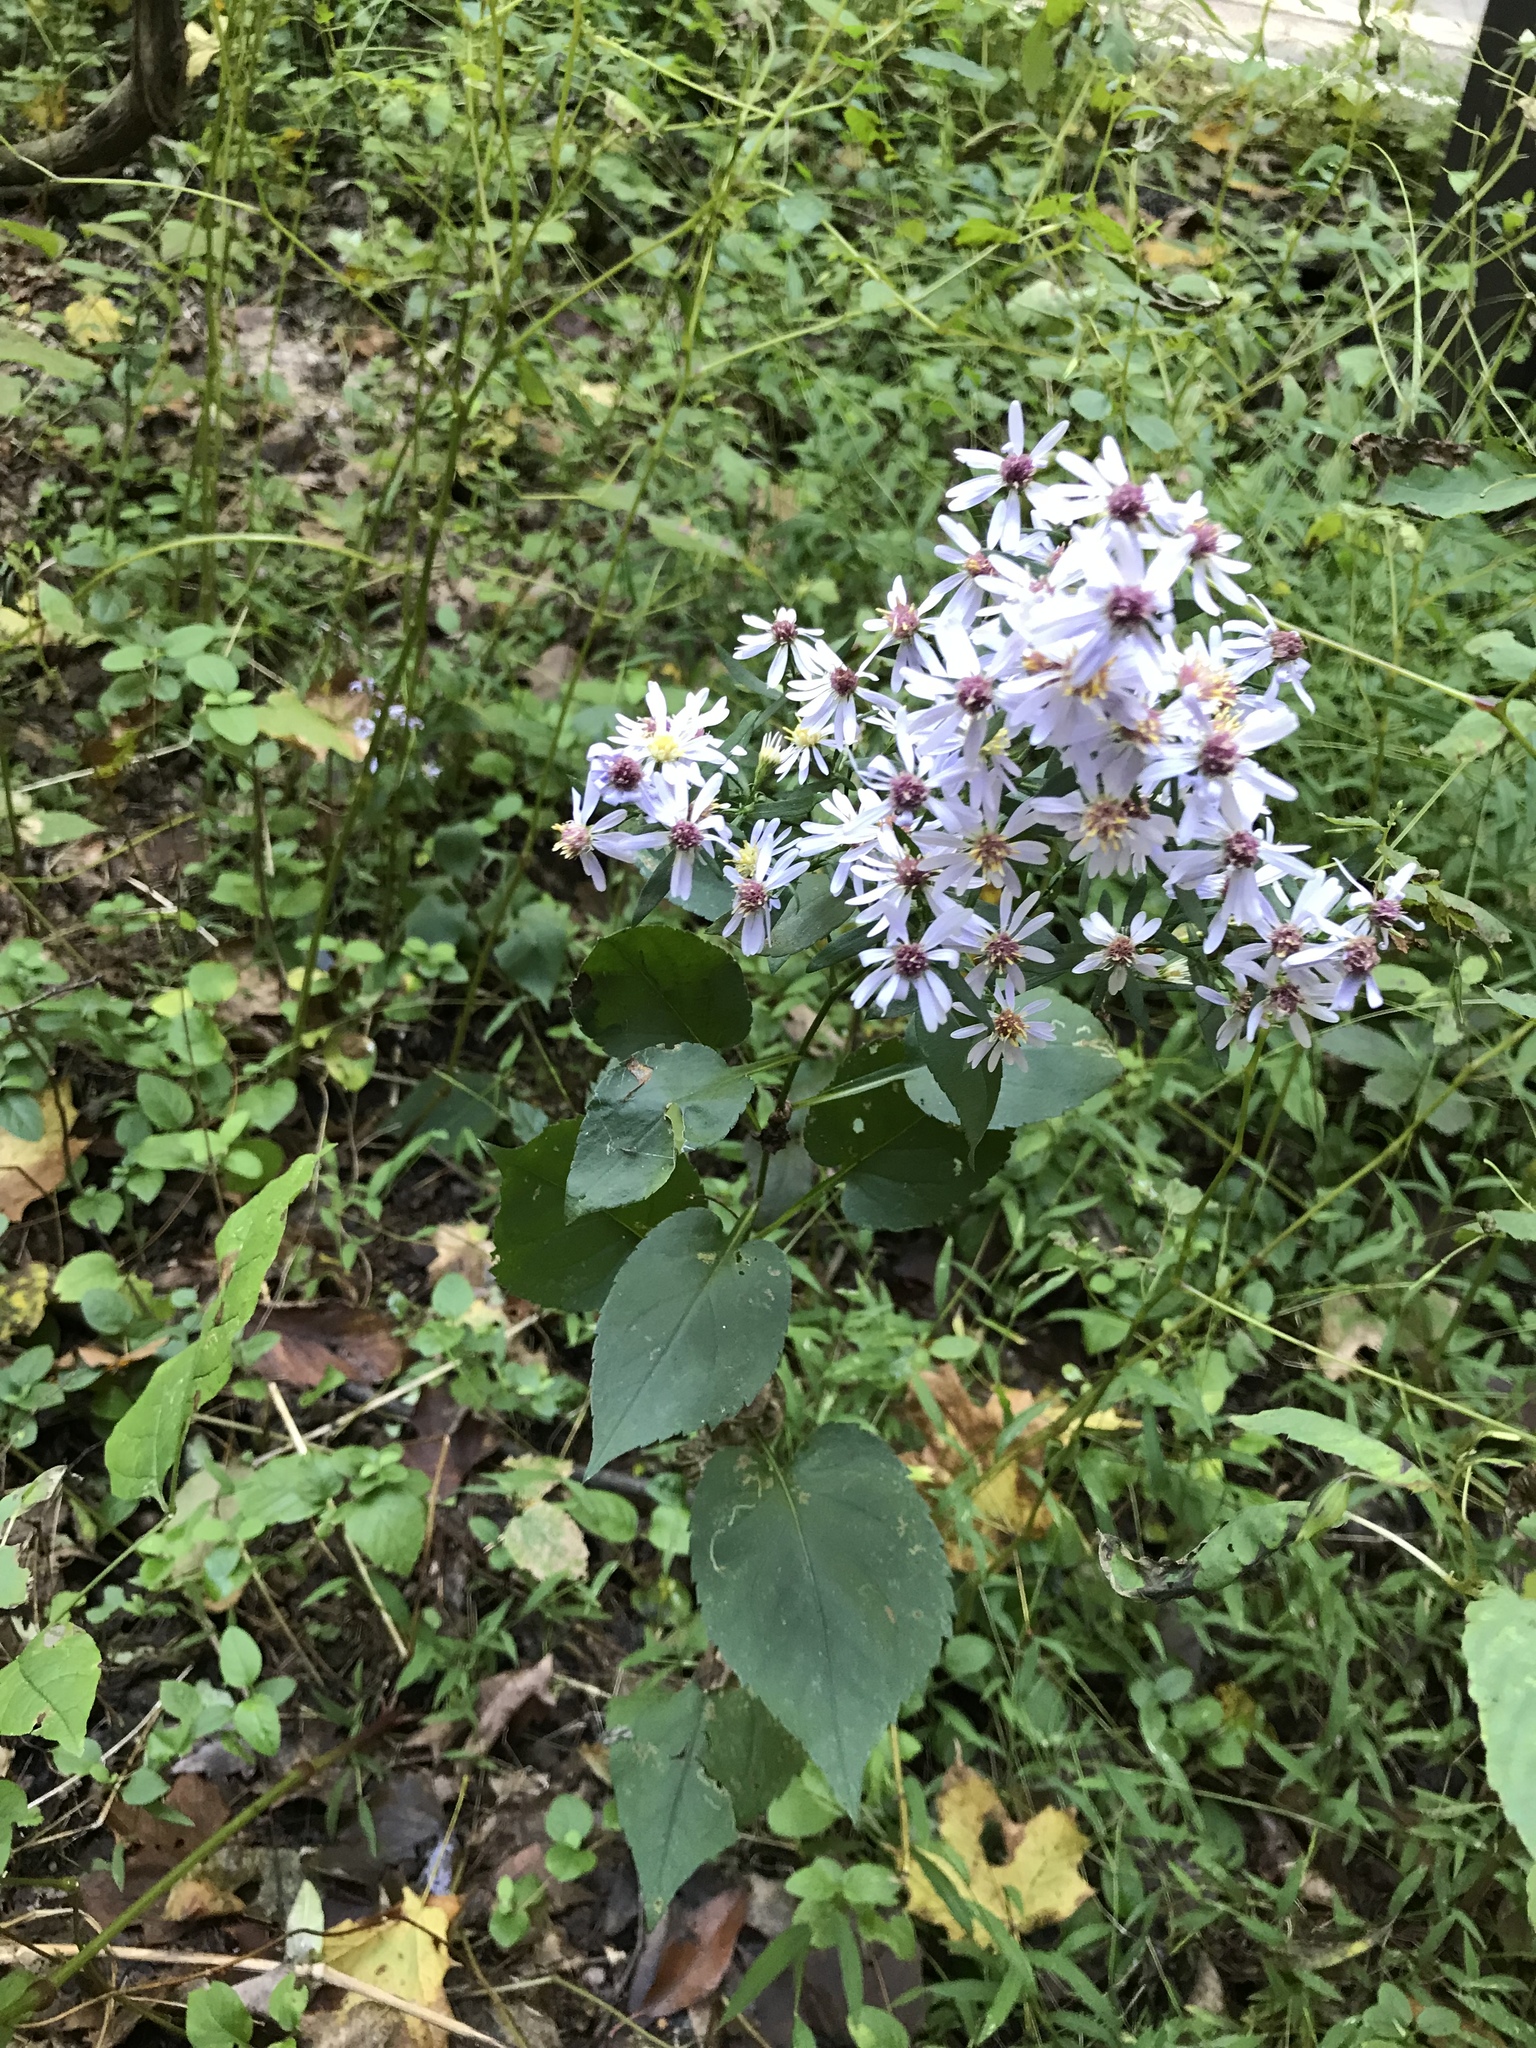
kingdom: Plantae
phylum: Tracheophyta
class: Magnoliopsida
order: Asterales
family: Asteraceae
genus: Symphyotrichum
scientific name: Symphyotrichum cordifolium
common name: Beeweed
